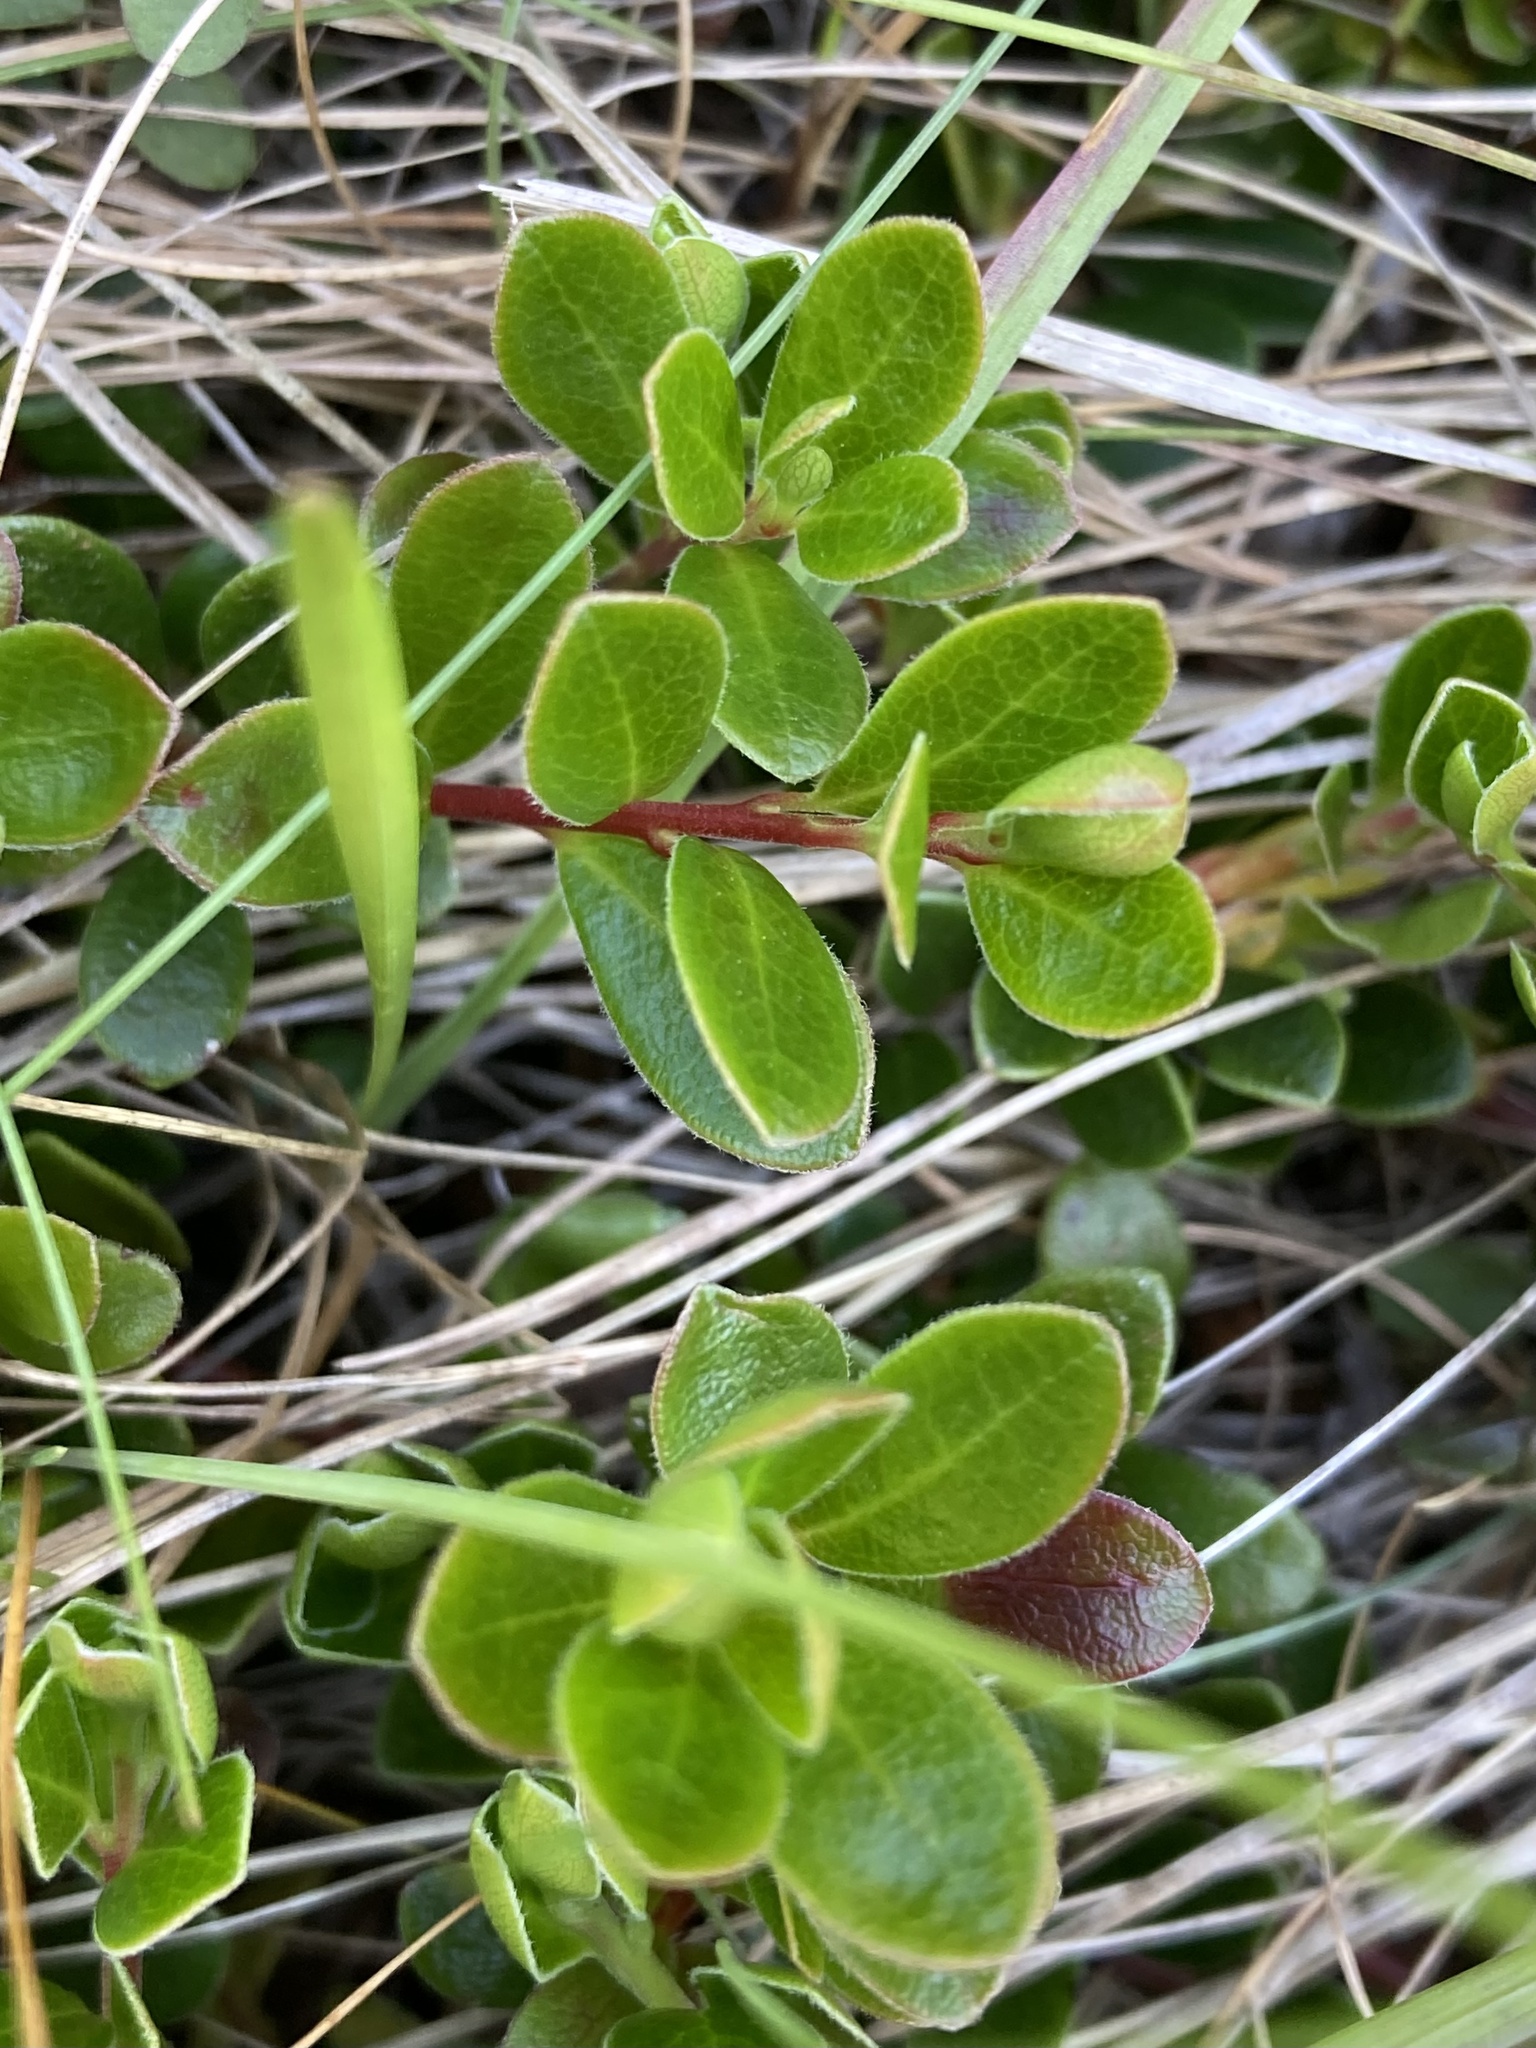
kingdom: Plantae
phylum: Tracheophyta
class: Magnoliopsida
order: Ericales
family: Ericaceae
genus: Arctostaphylos
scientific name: Arctostaphylos uva-ursi
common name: Bearberry
